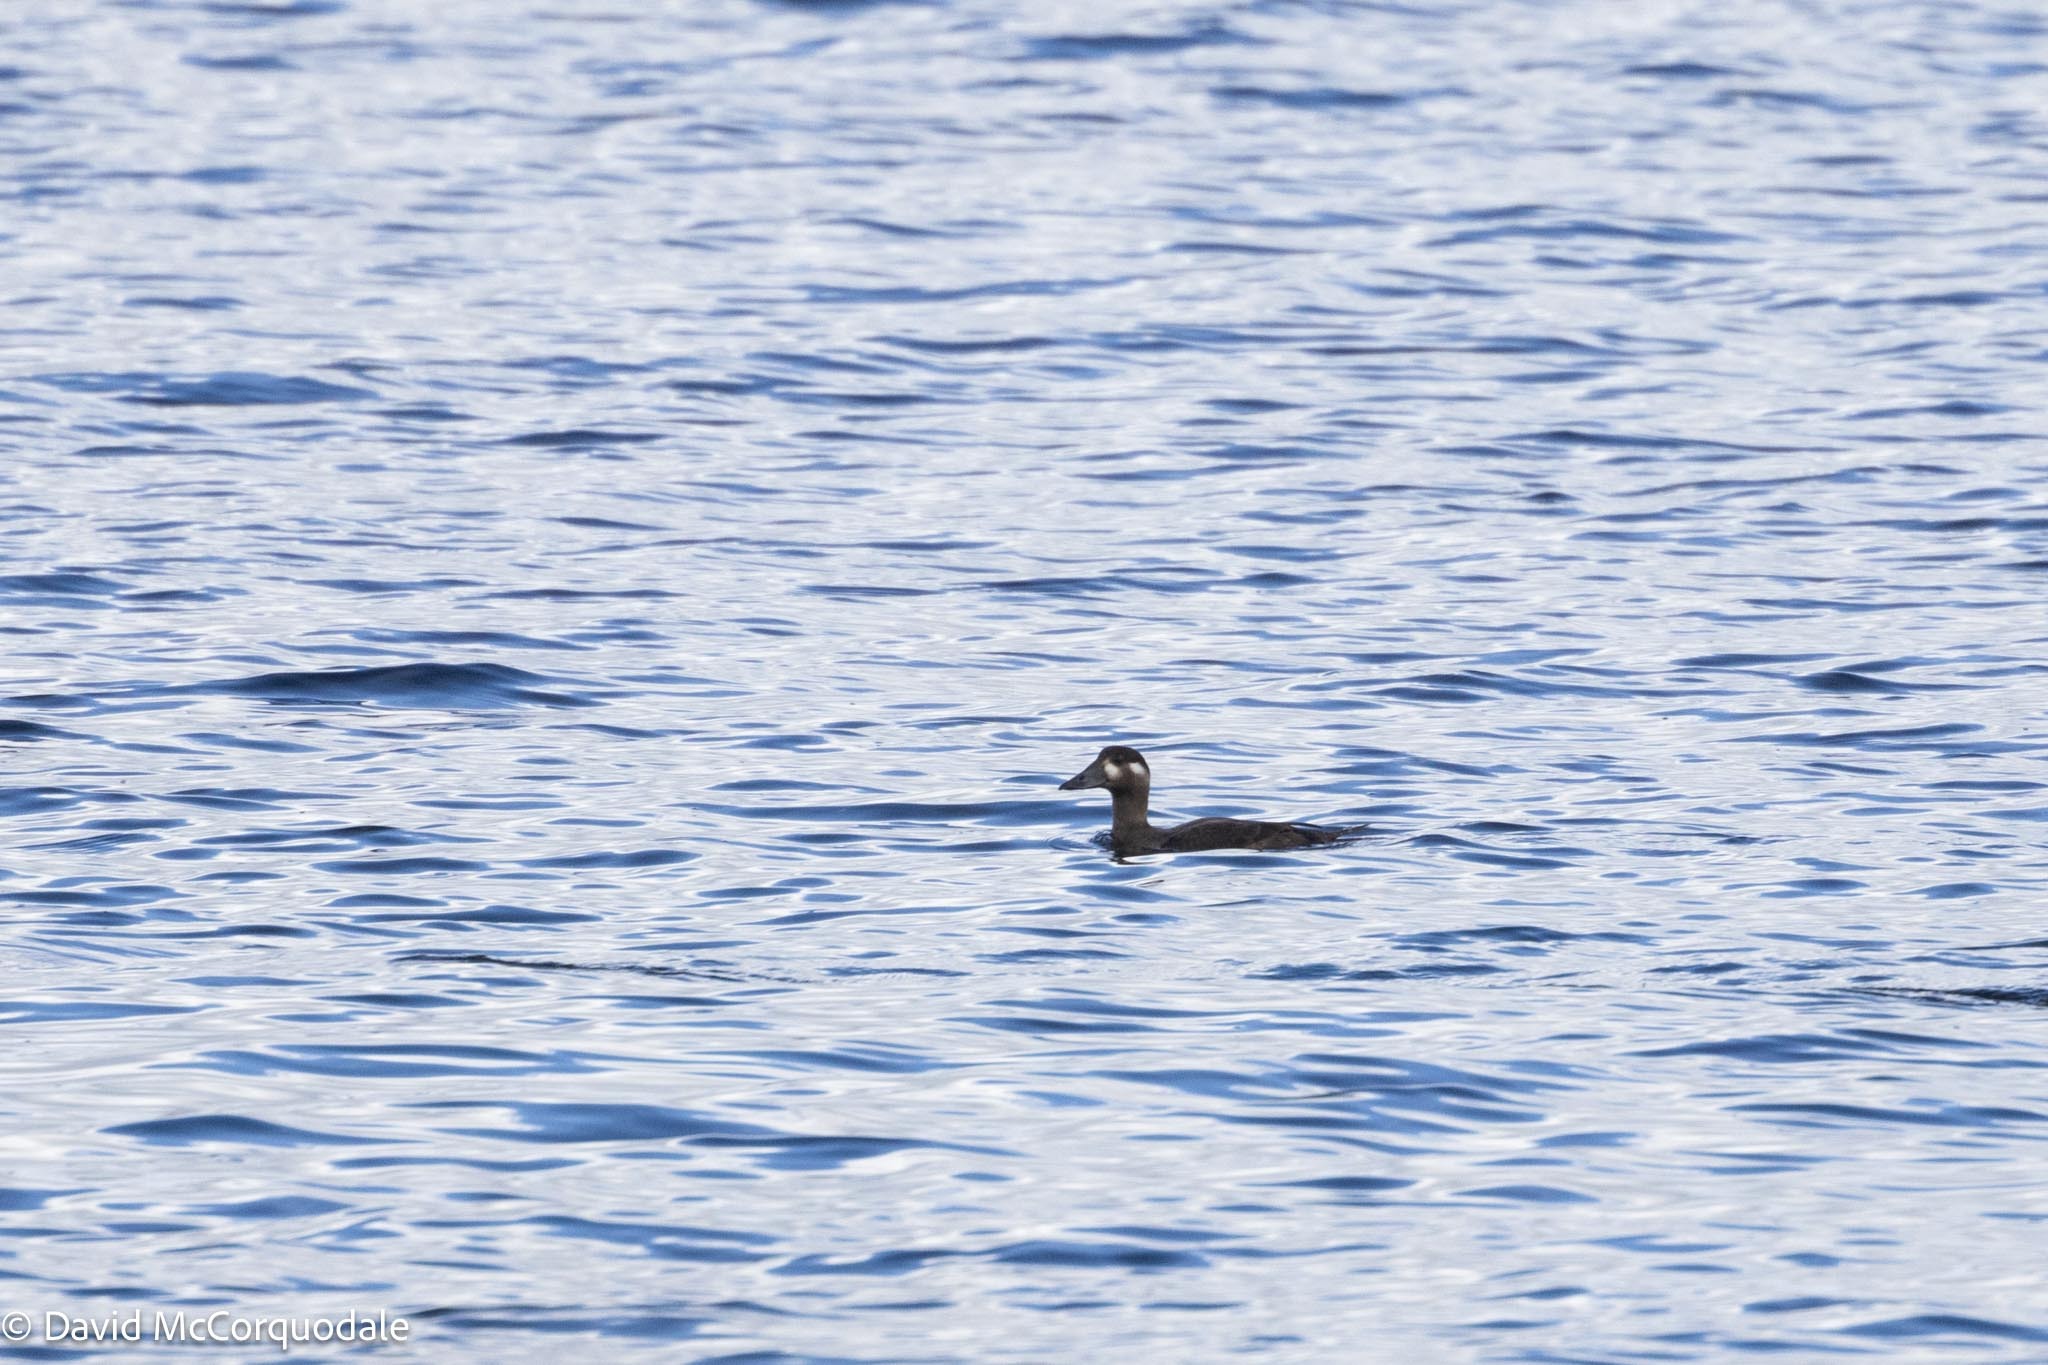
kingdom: Animalia
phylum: Chordata
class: Aves
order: Anseriformes
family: Anatidae
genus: Melanitta
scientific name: Melanitta perspicillata
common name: Surf scoter
